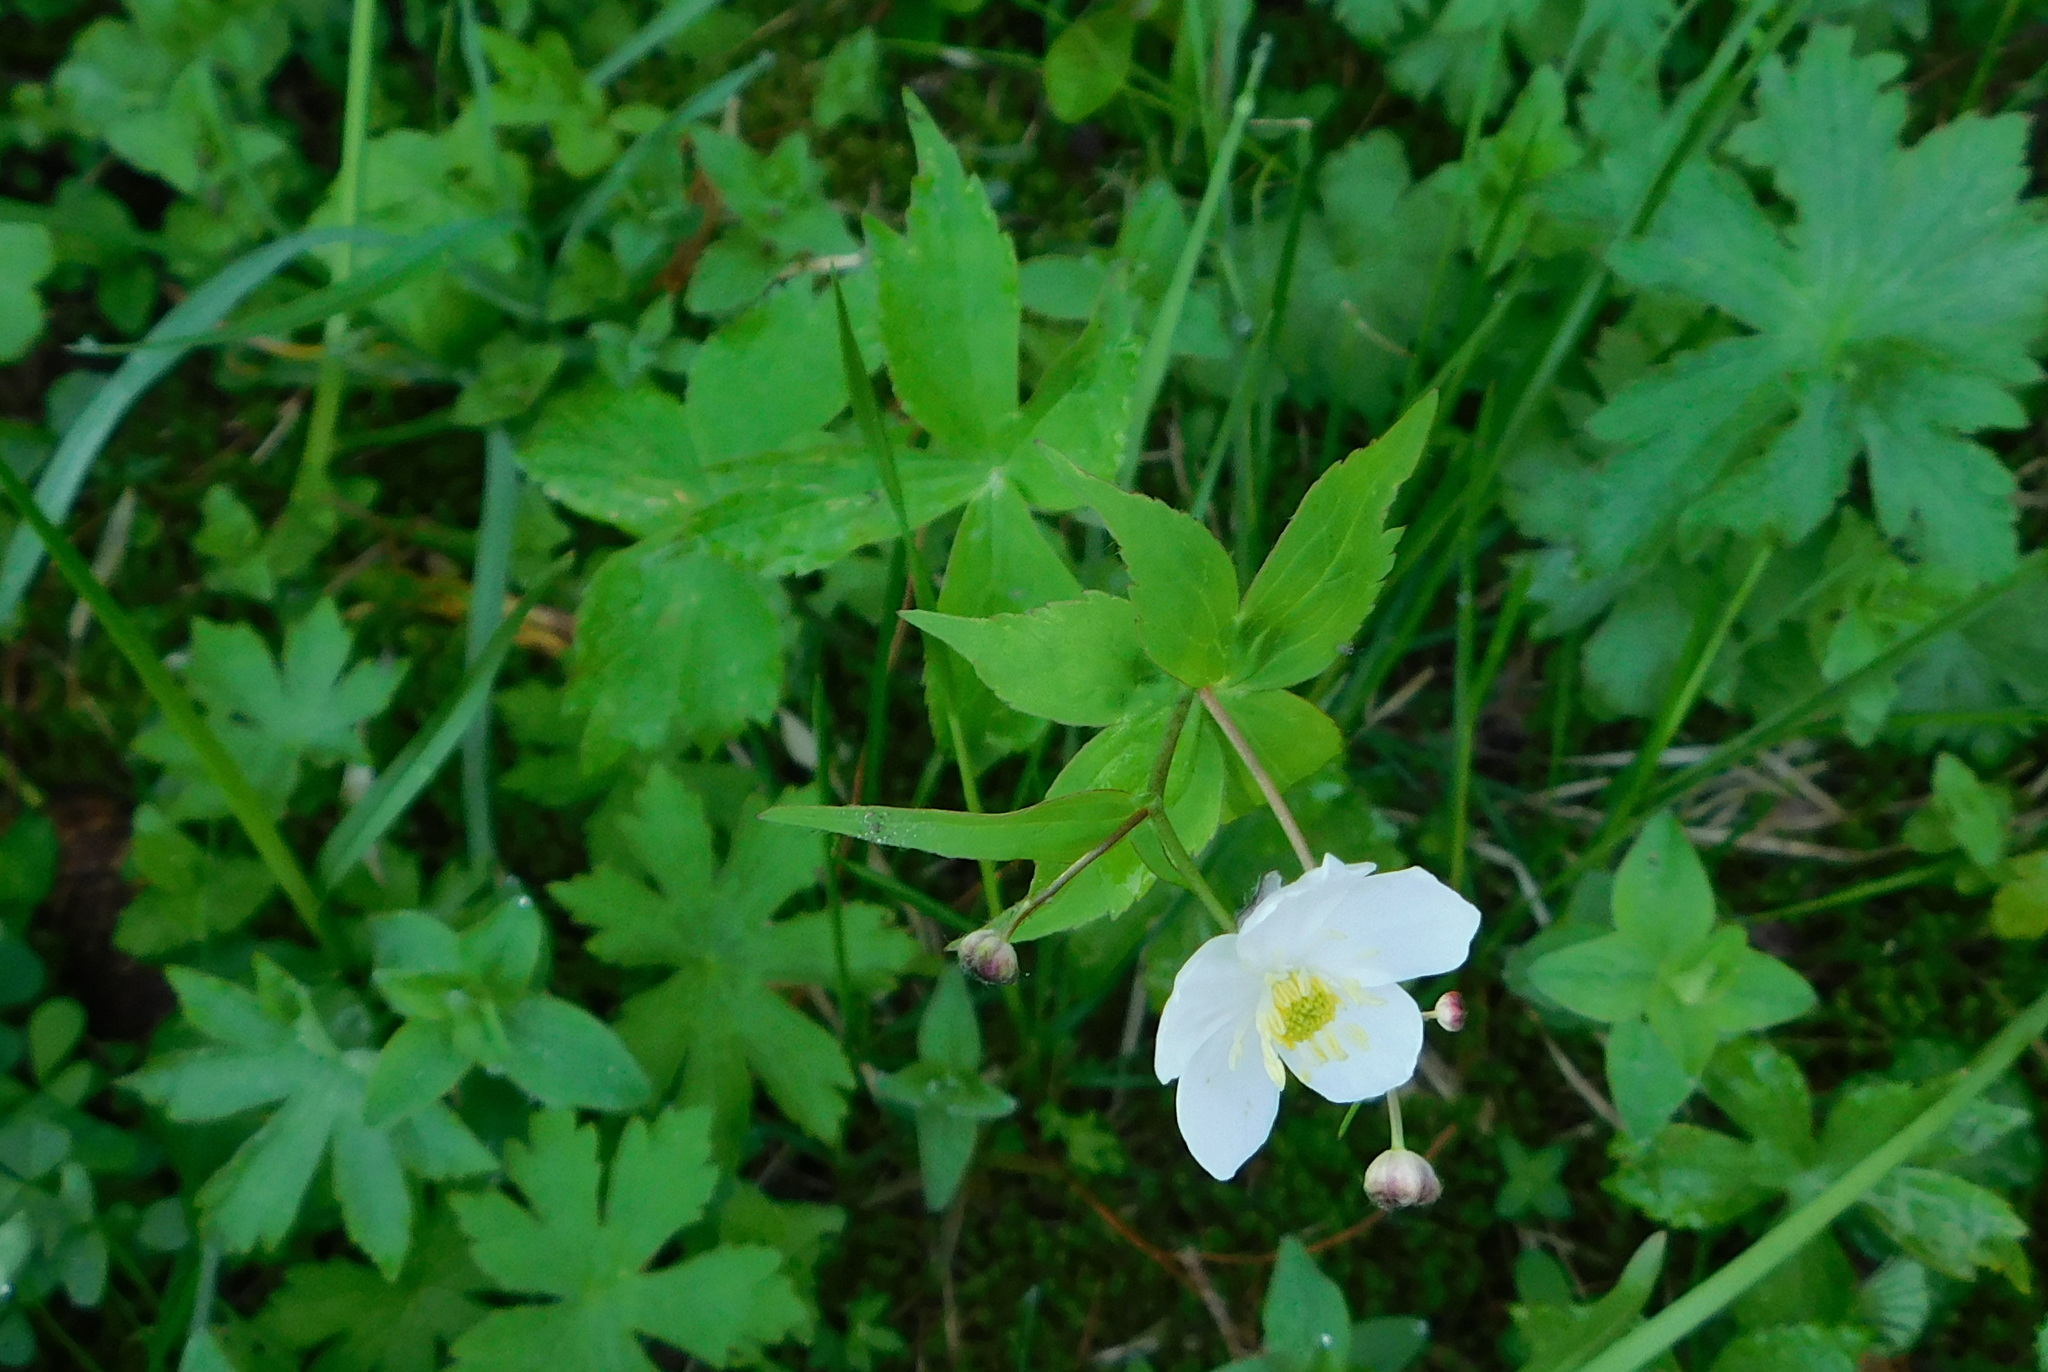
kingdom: Plantae
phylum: Tracheophyta
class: Magnoliopsida
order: Ranunculales
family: Ranunculaceae
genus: Ranunculus
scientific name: Ranunculus platanifolius
